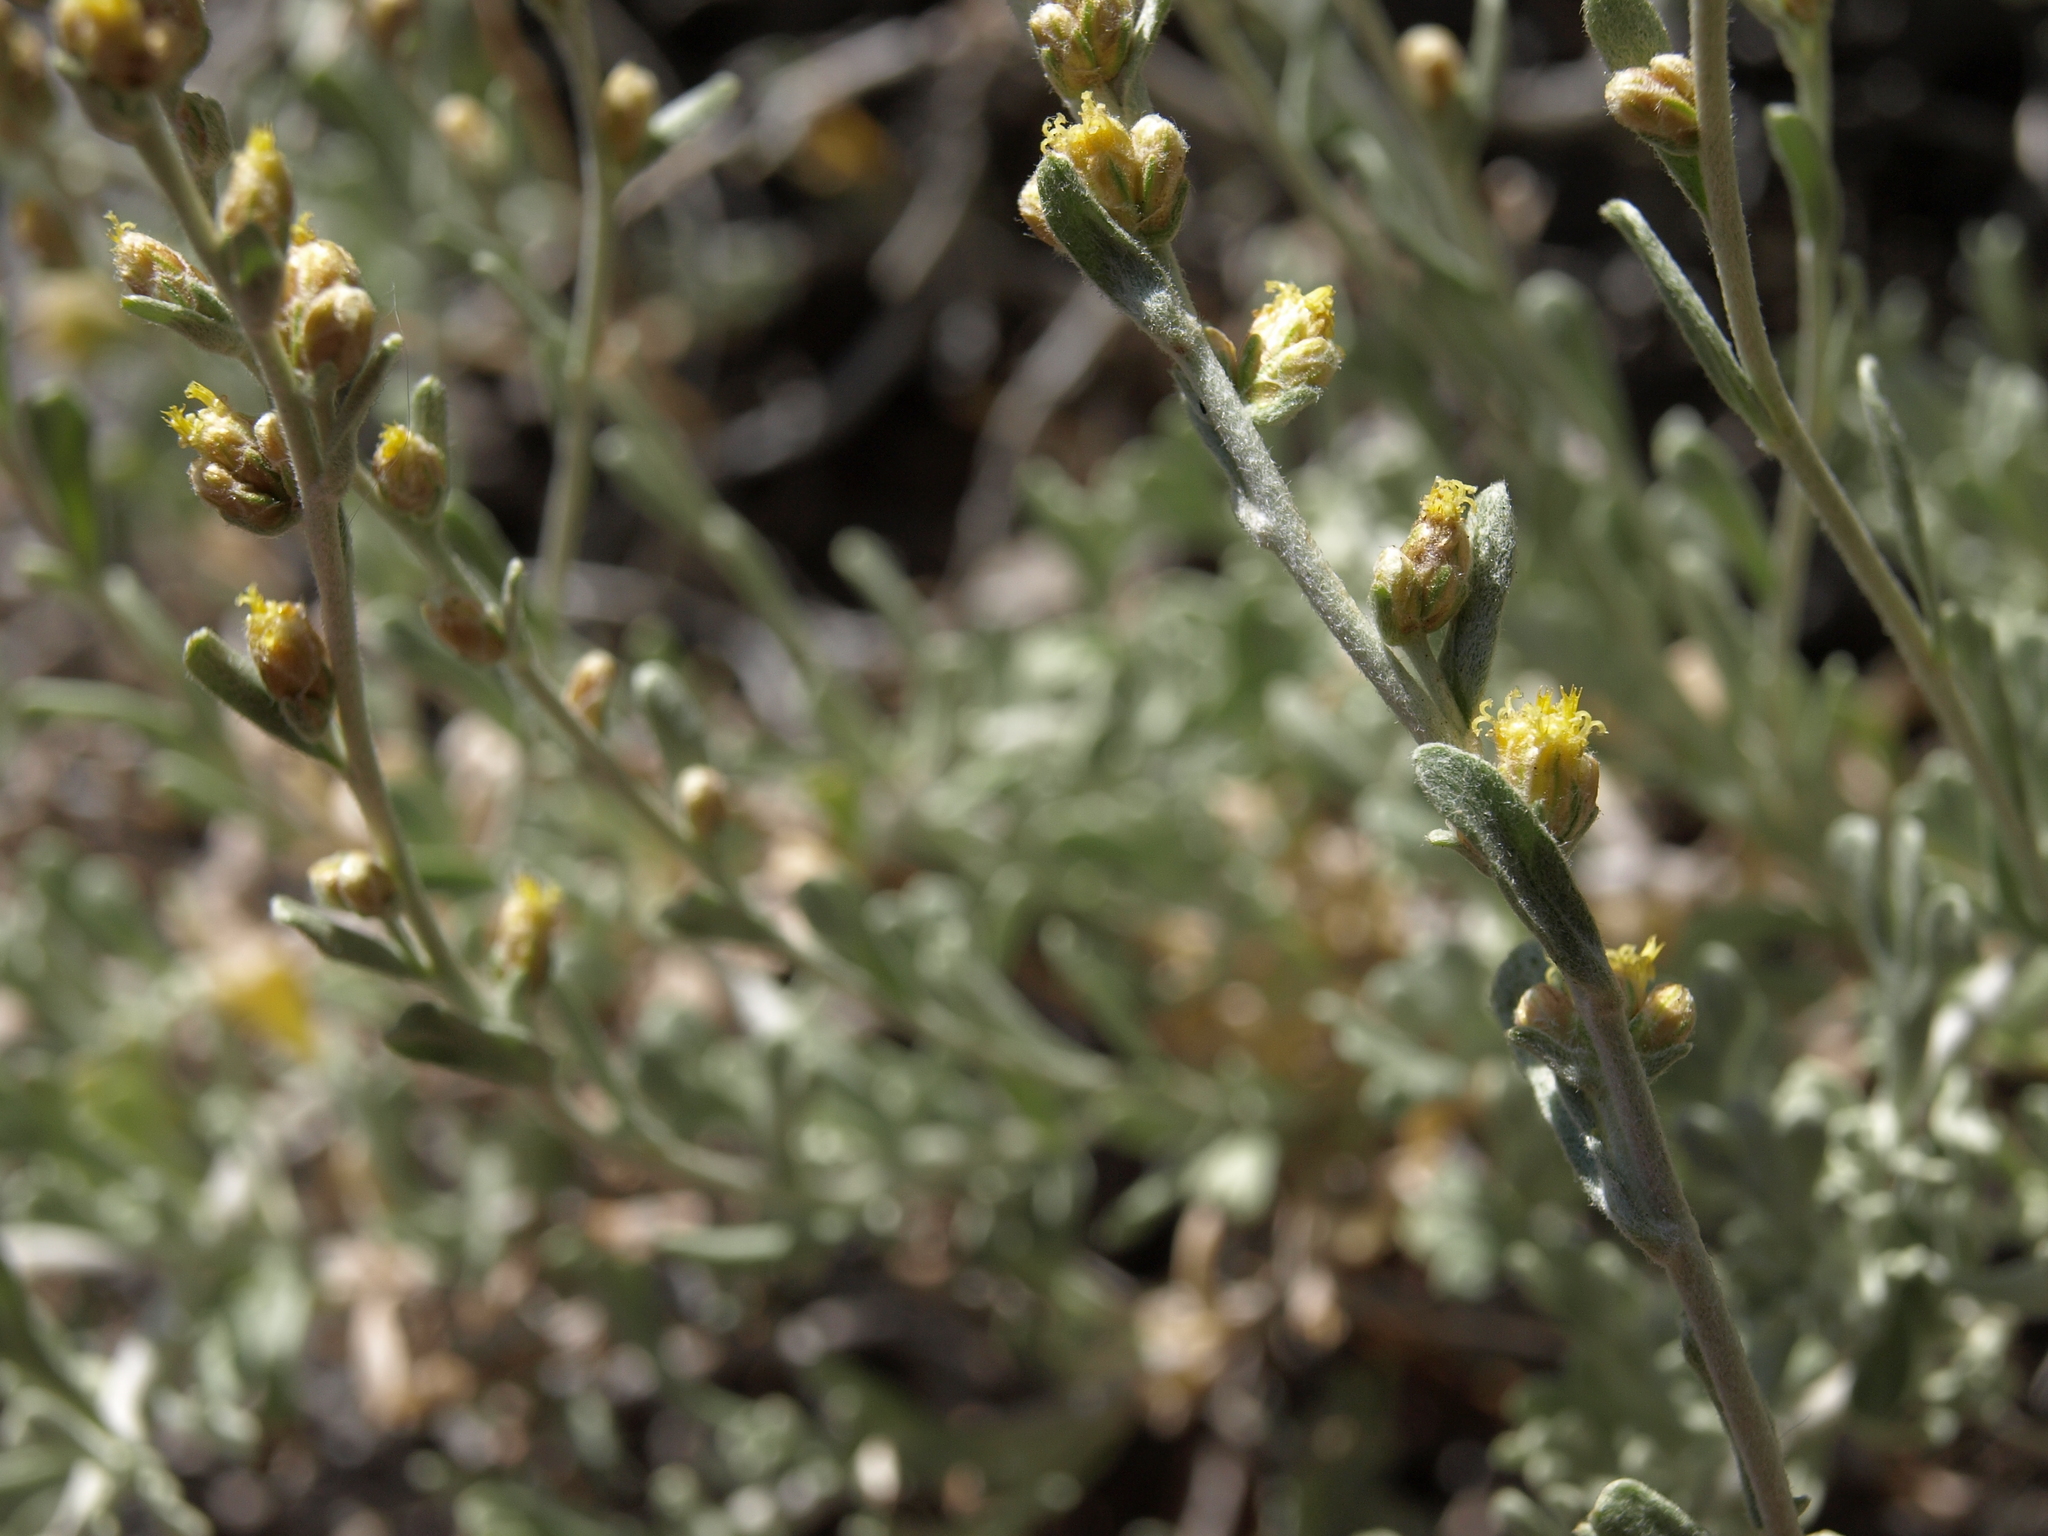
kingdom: Plantae
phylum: Tracheophyta
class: Magnoliopsida
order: Asterales
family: Asteraceae
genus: Artemisia
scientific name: Artemisia rothrockii
